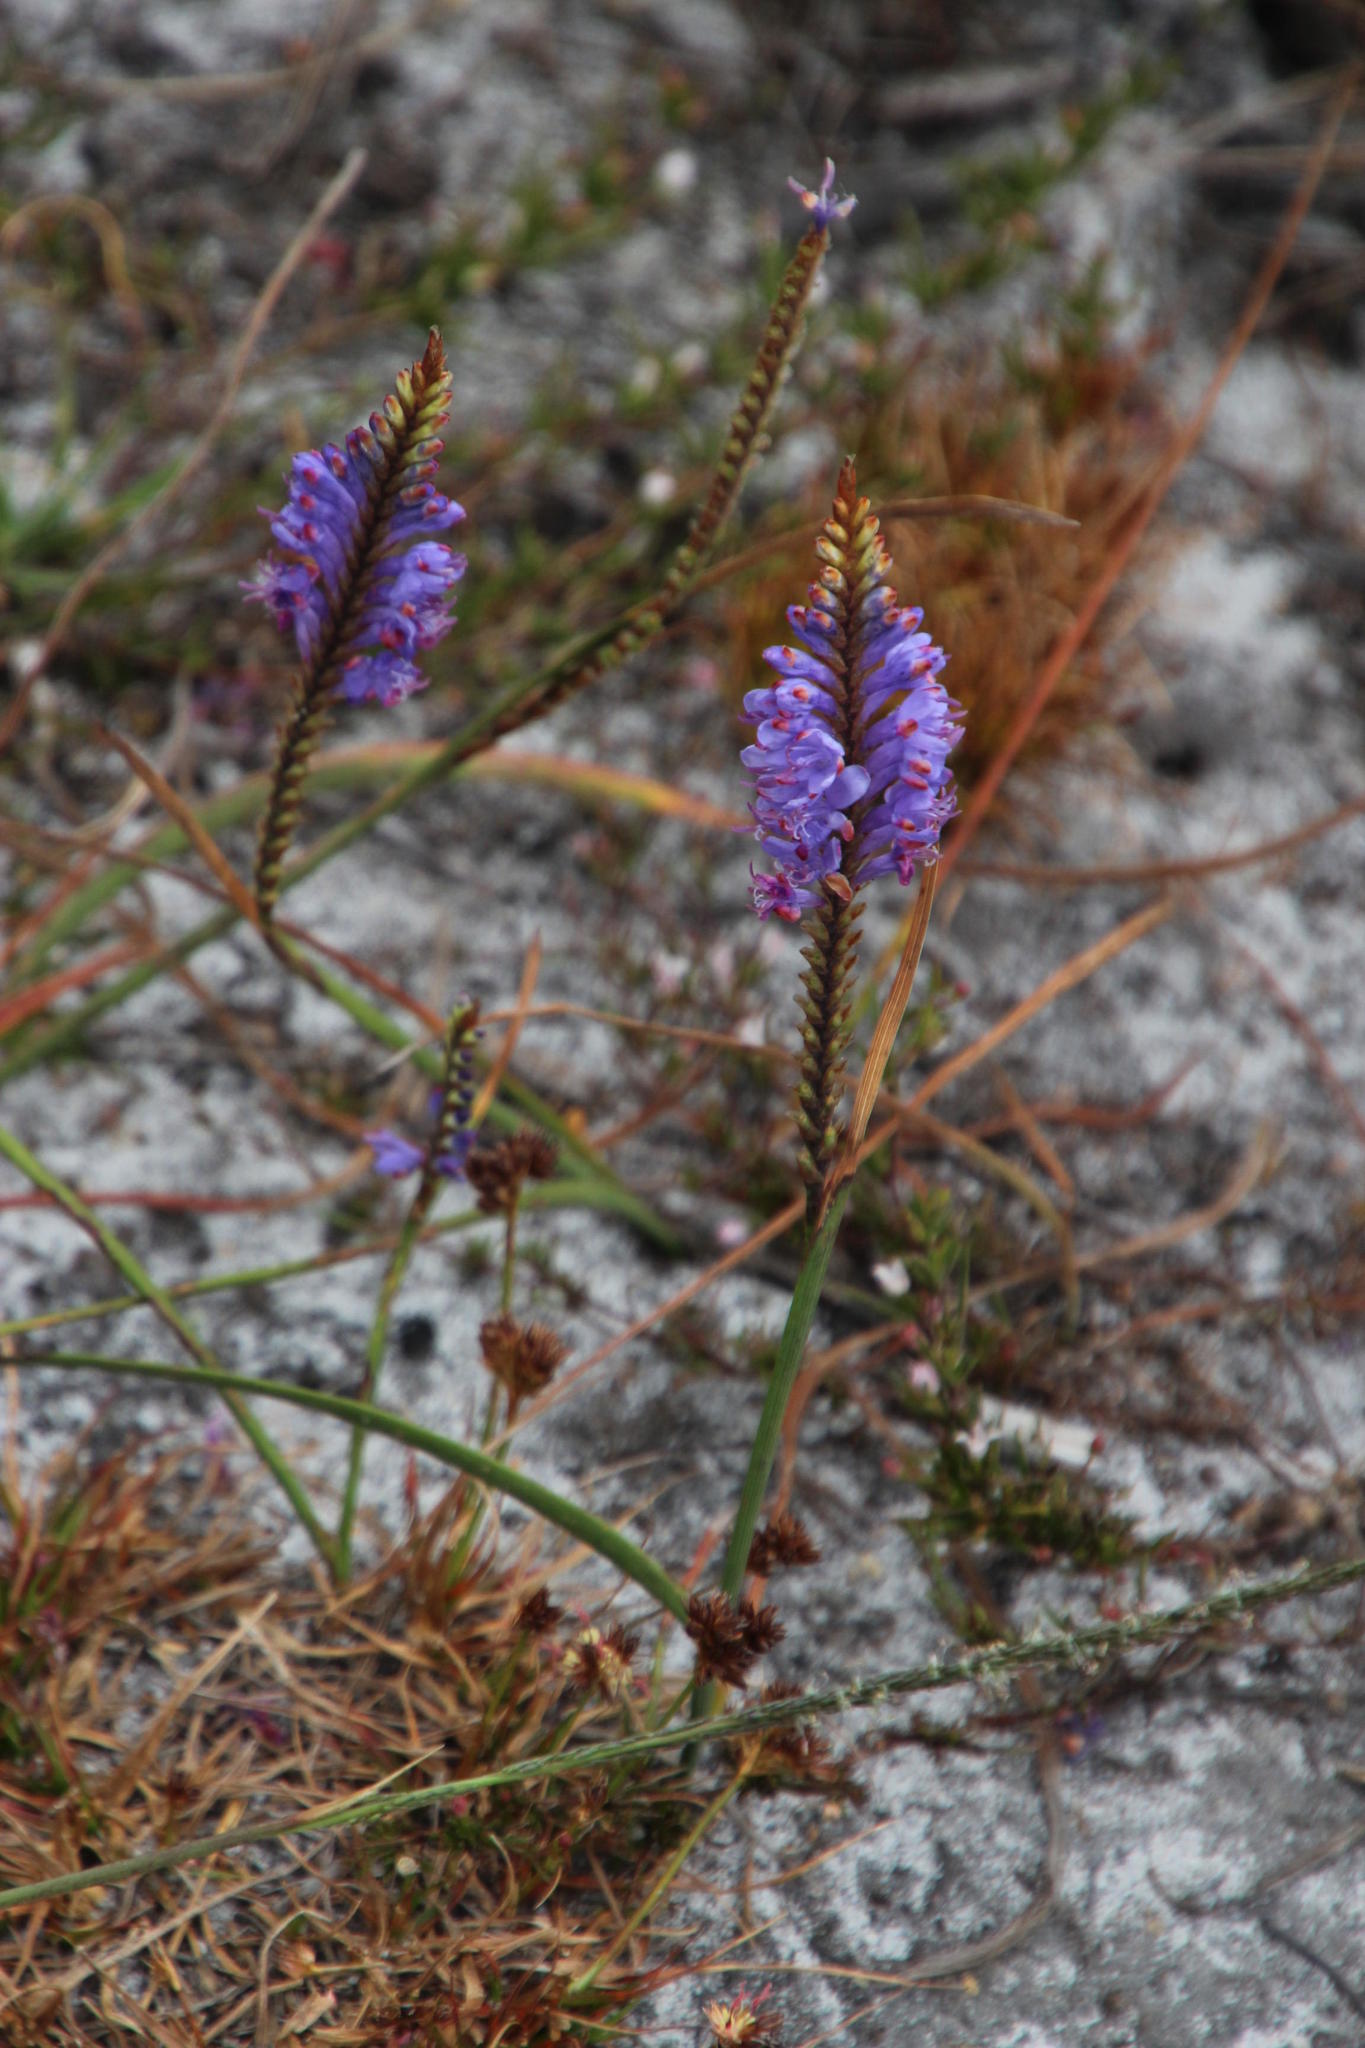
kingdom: Plantae
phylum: Tracheophyta
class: Liliopsida
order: Asparagales
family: Iridaceae
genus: Micranthus
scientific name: Micranthus alopecuroides
